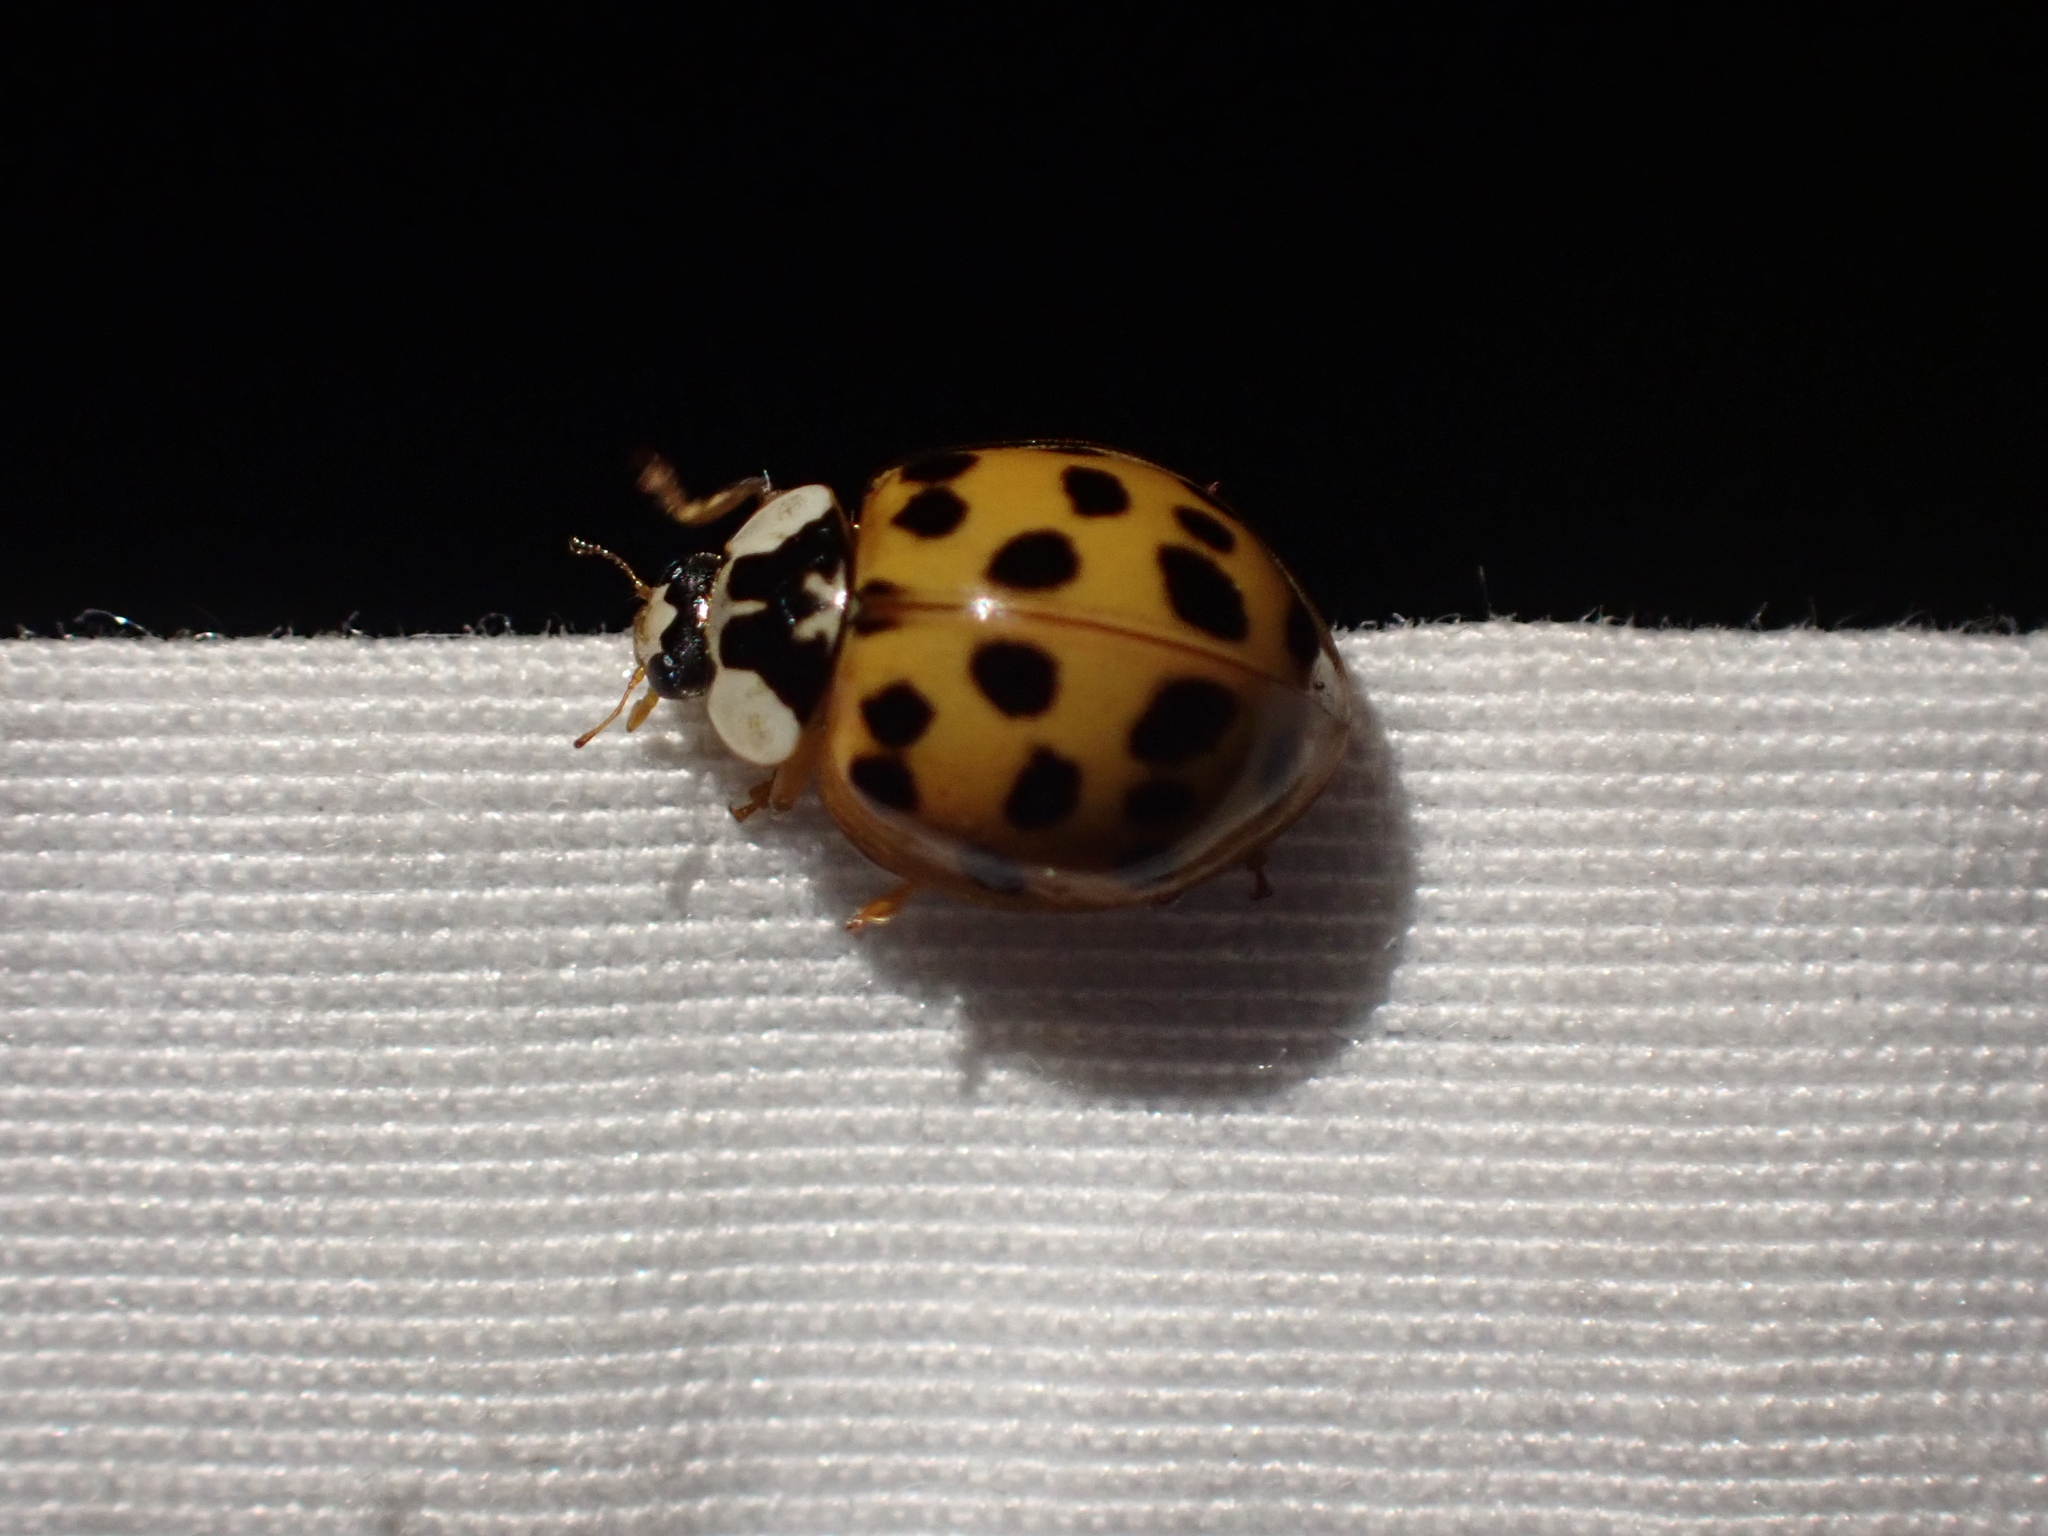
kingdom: Animalia
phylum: Arthropoda
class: Insecta
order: Coleoptera
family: Coccinellidae
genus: Harmonia
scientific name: Harmonia axyridis
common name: Harlequin ladybird
